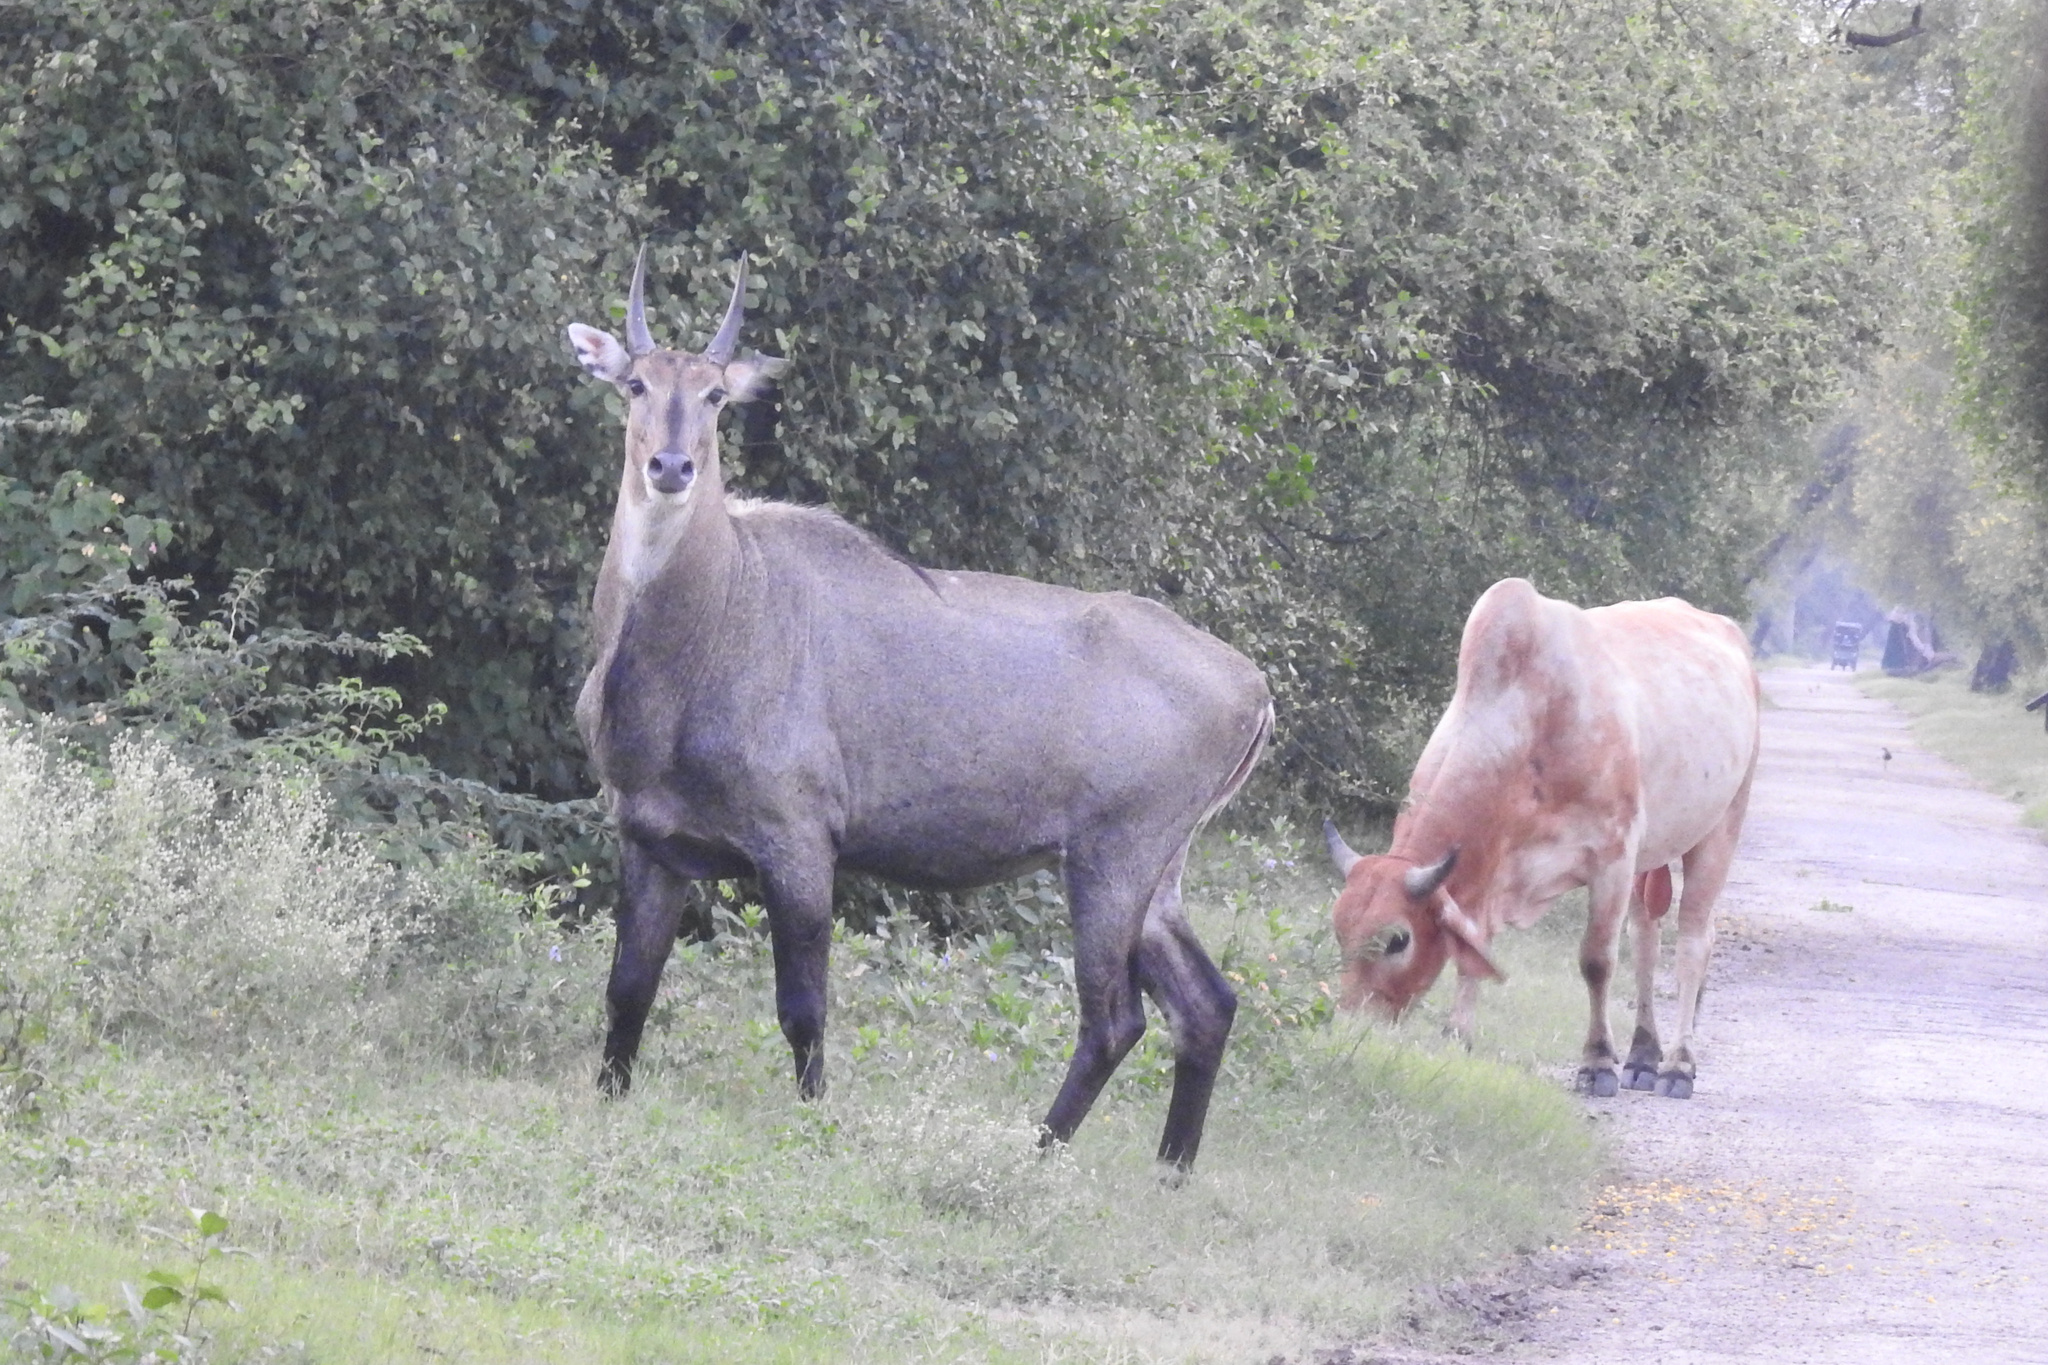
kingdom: Animalia
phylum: Chordata
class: Mammalia
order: Artiodactyla
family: Bovidae
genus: Boselaphus
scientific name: Boselaphus tragocamelus
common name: Nilgai
